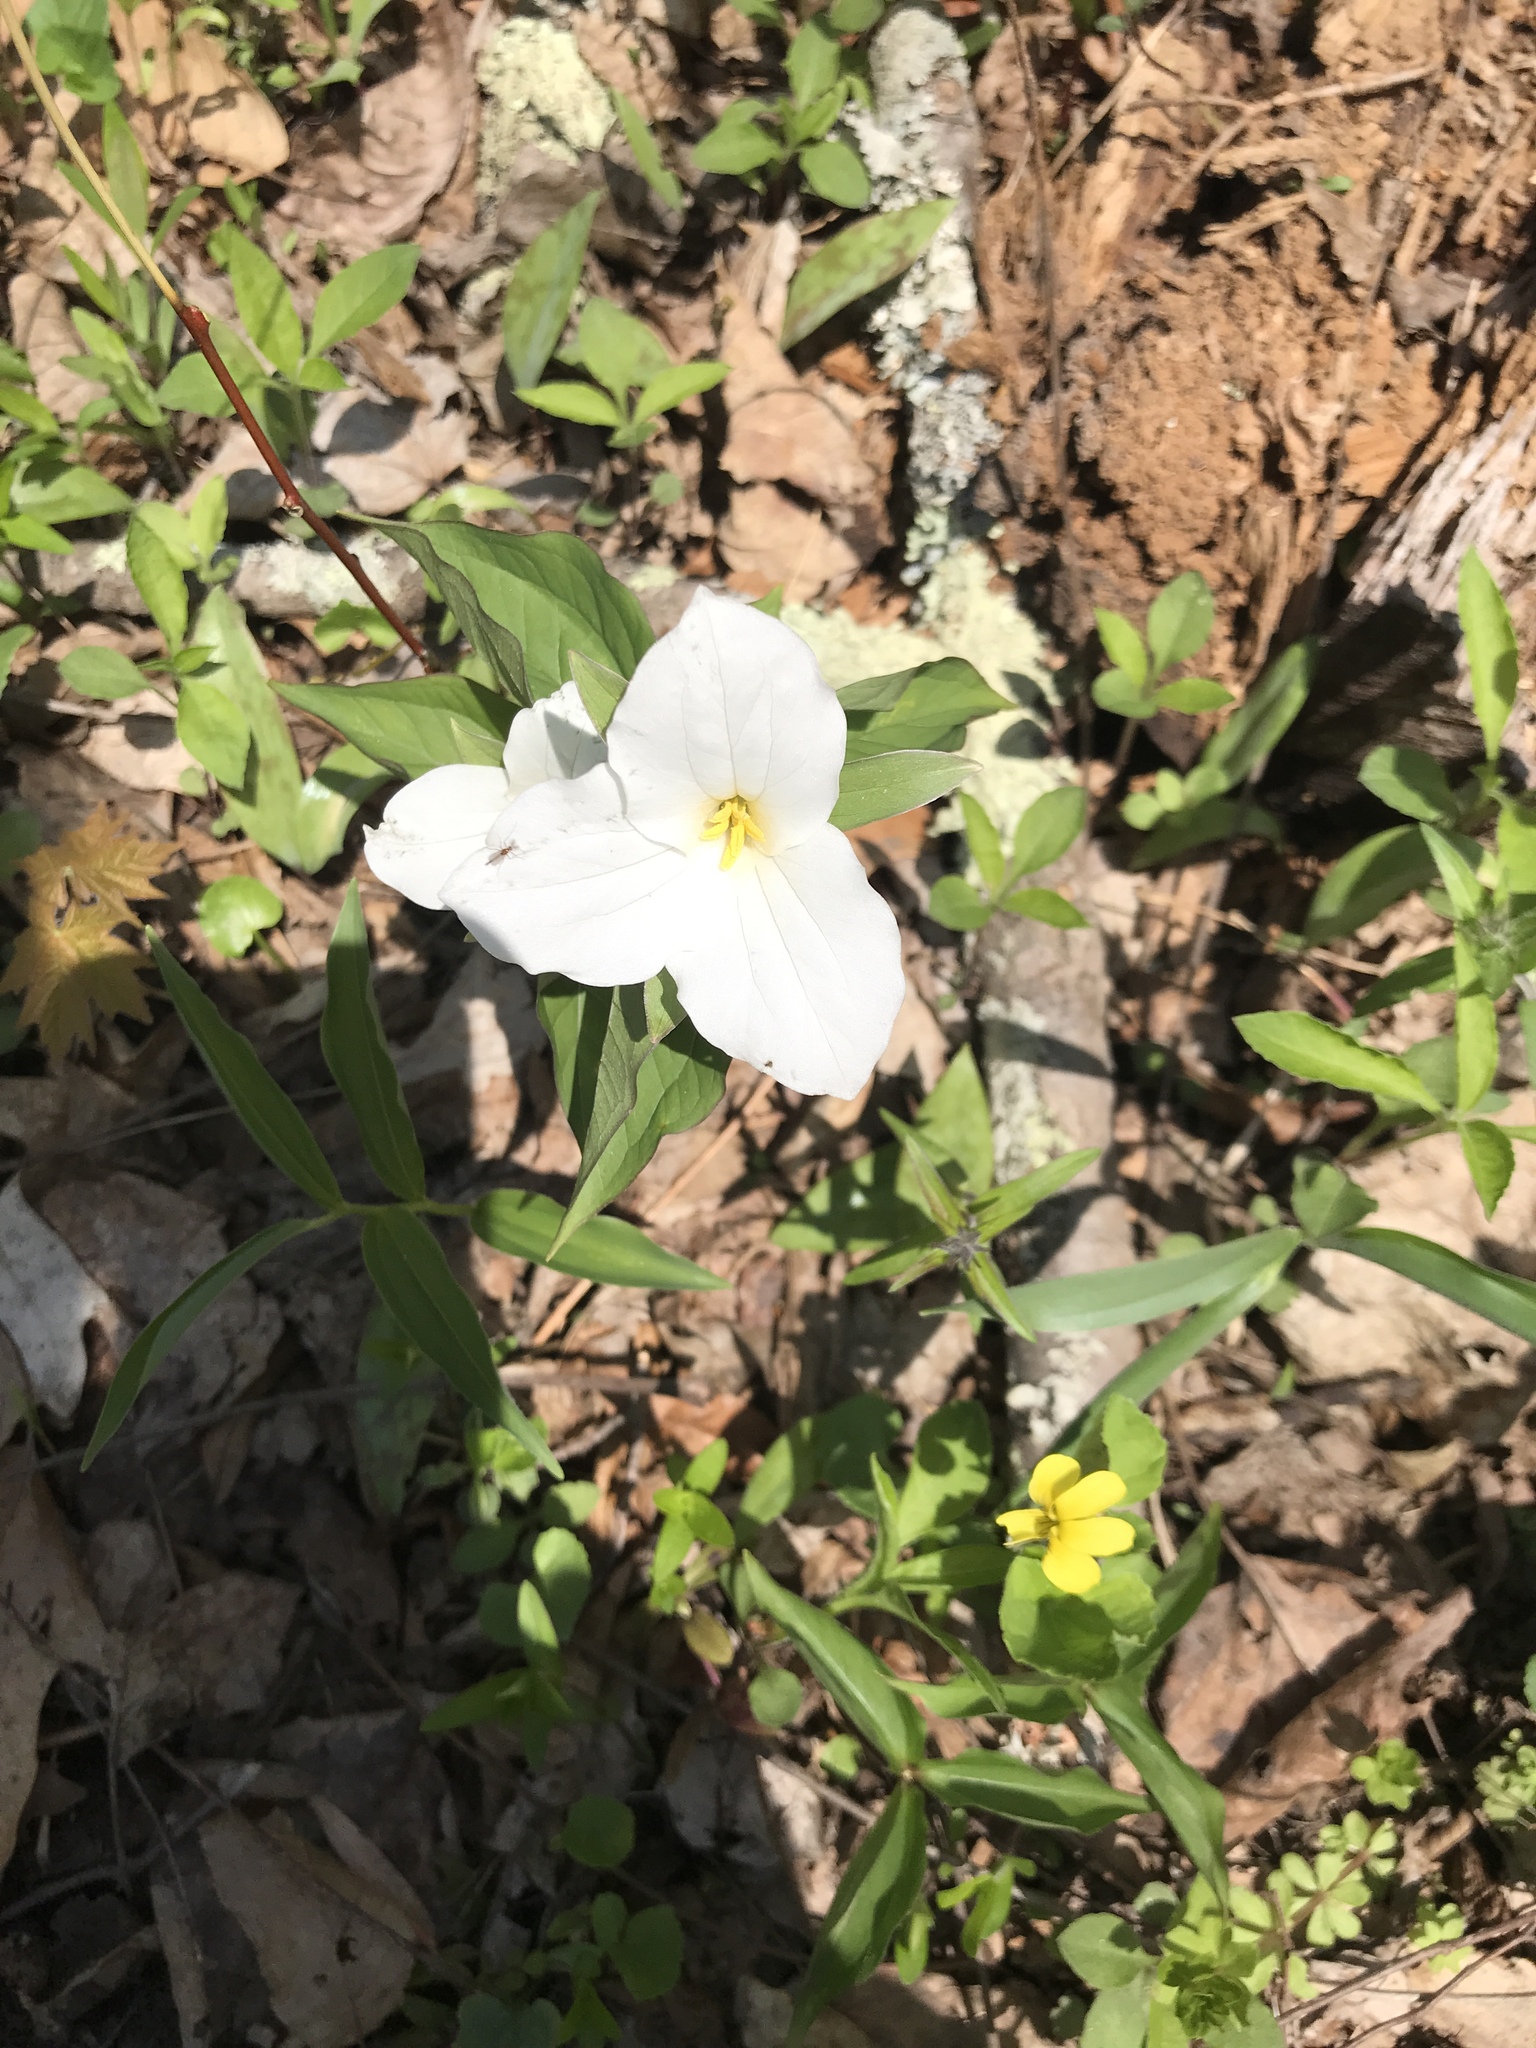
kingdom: Plantae
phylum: Tracheophyta
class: Liliopsida
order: Liliales
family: Melanthiaceae
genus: Trillium
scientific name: Trillium grandiflorum
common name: Great white trillium
